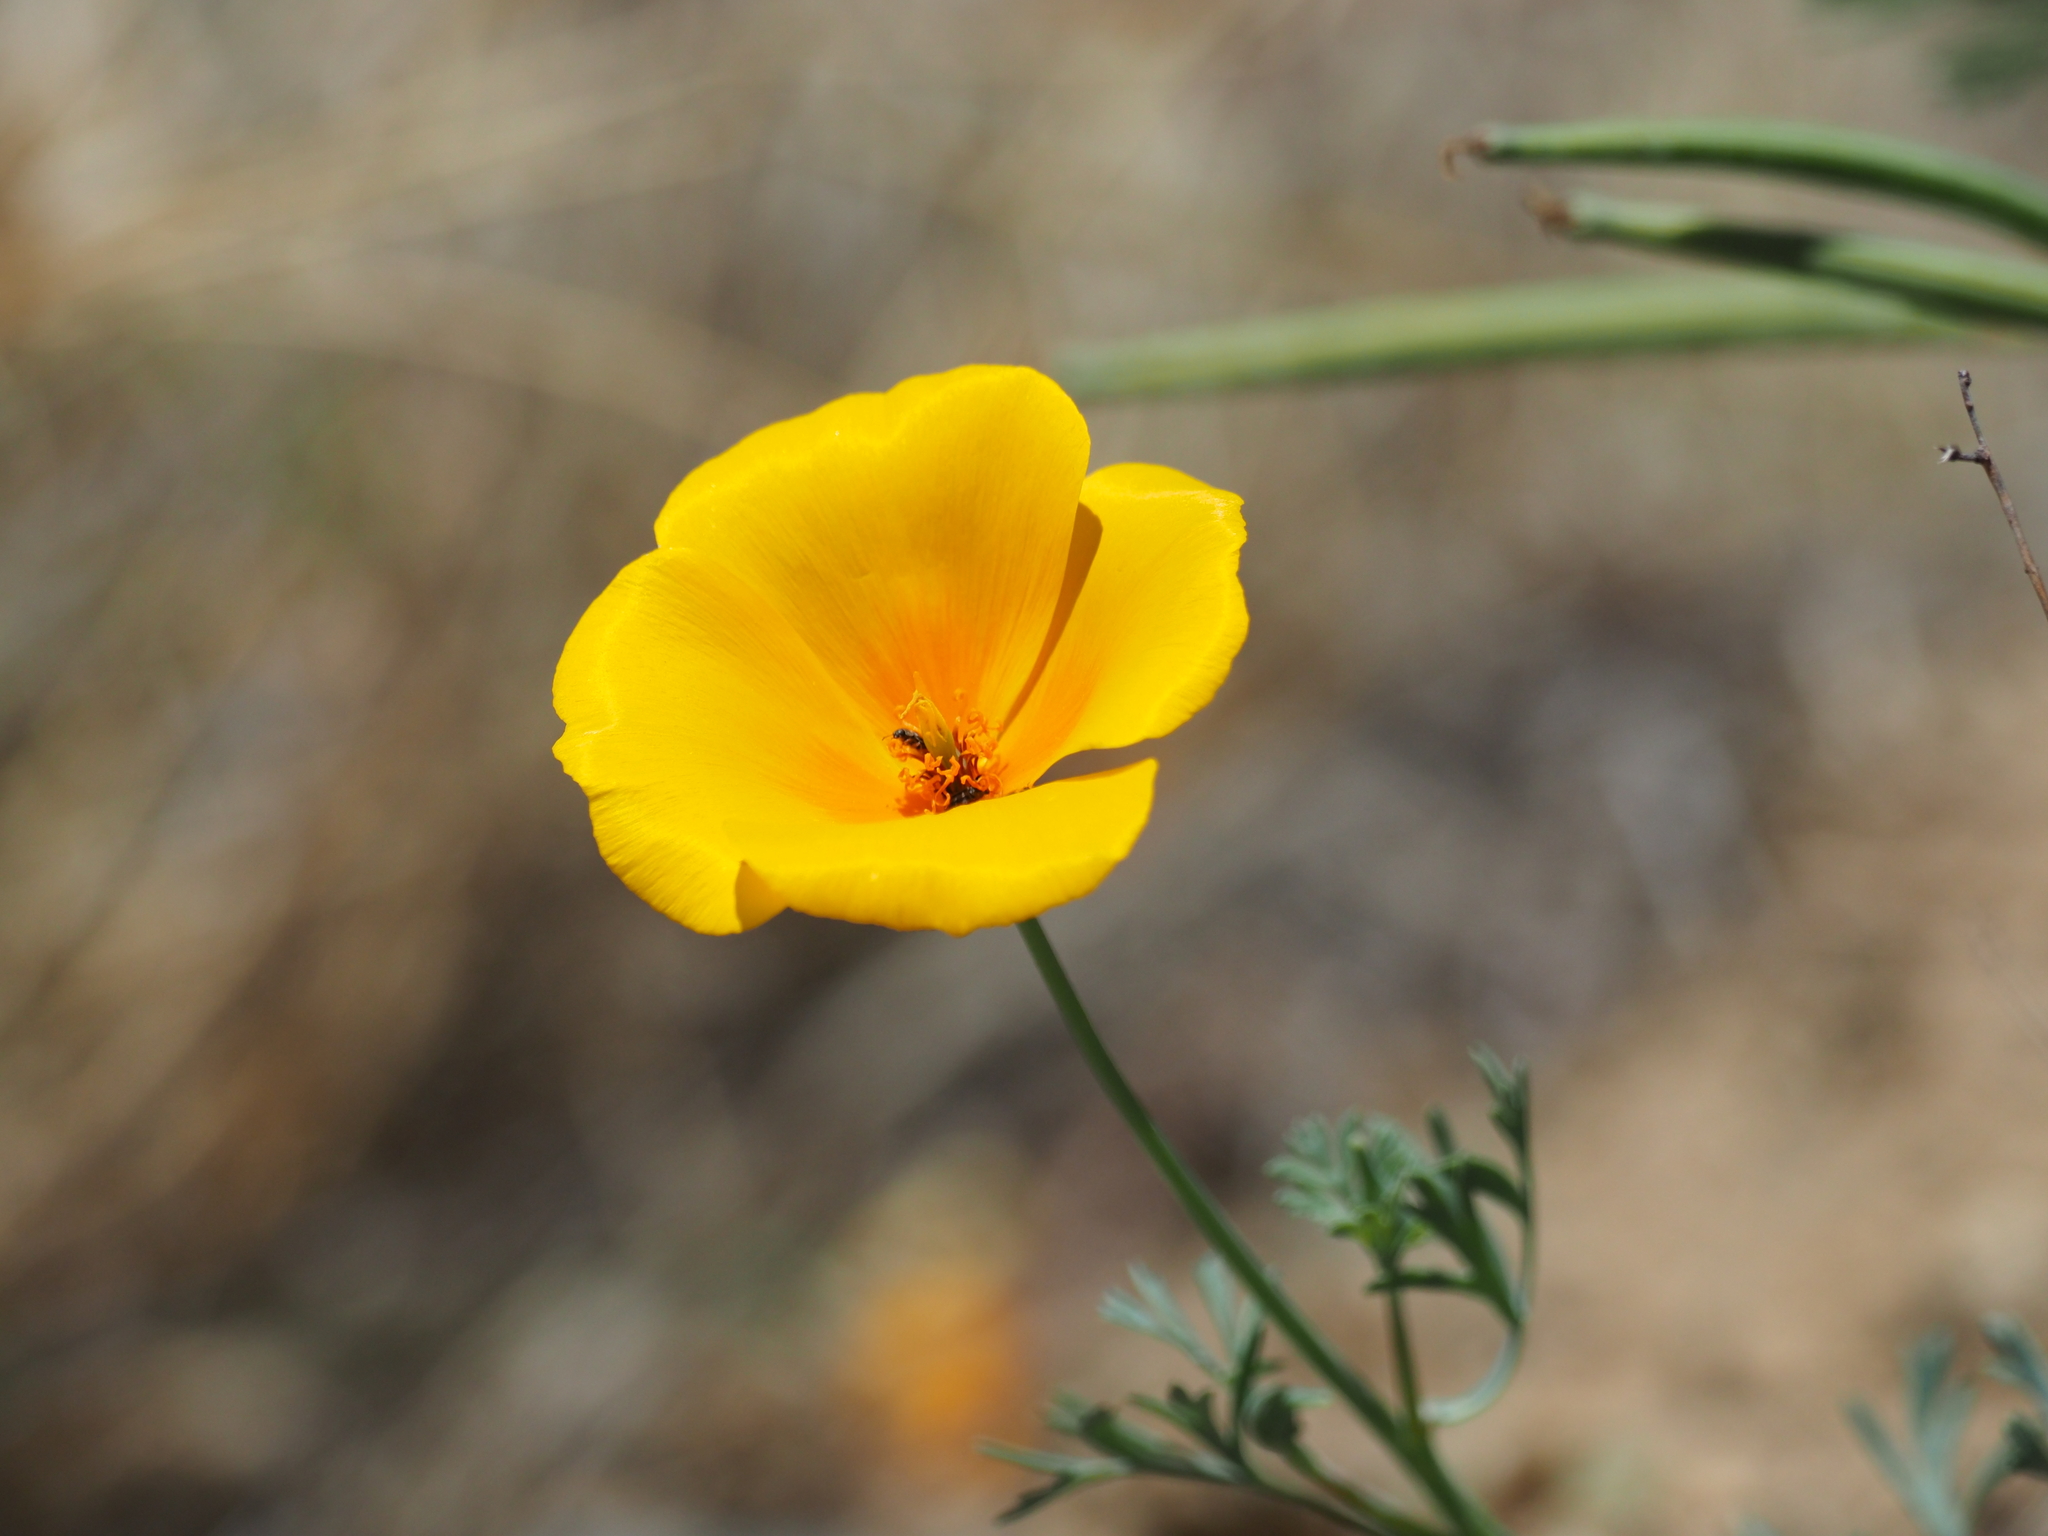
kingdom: Plantae
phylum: Tracheophyta
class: Magnoliopsida
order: Ranunculales
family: Papaveraceae
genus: Eschscholzia
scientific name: Eschscholzia californica
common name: California poppy
